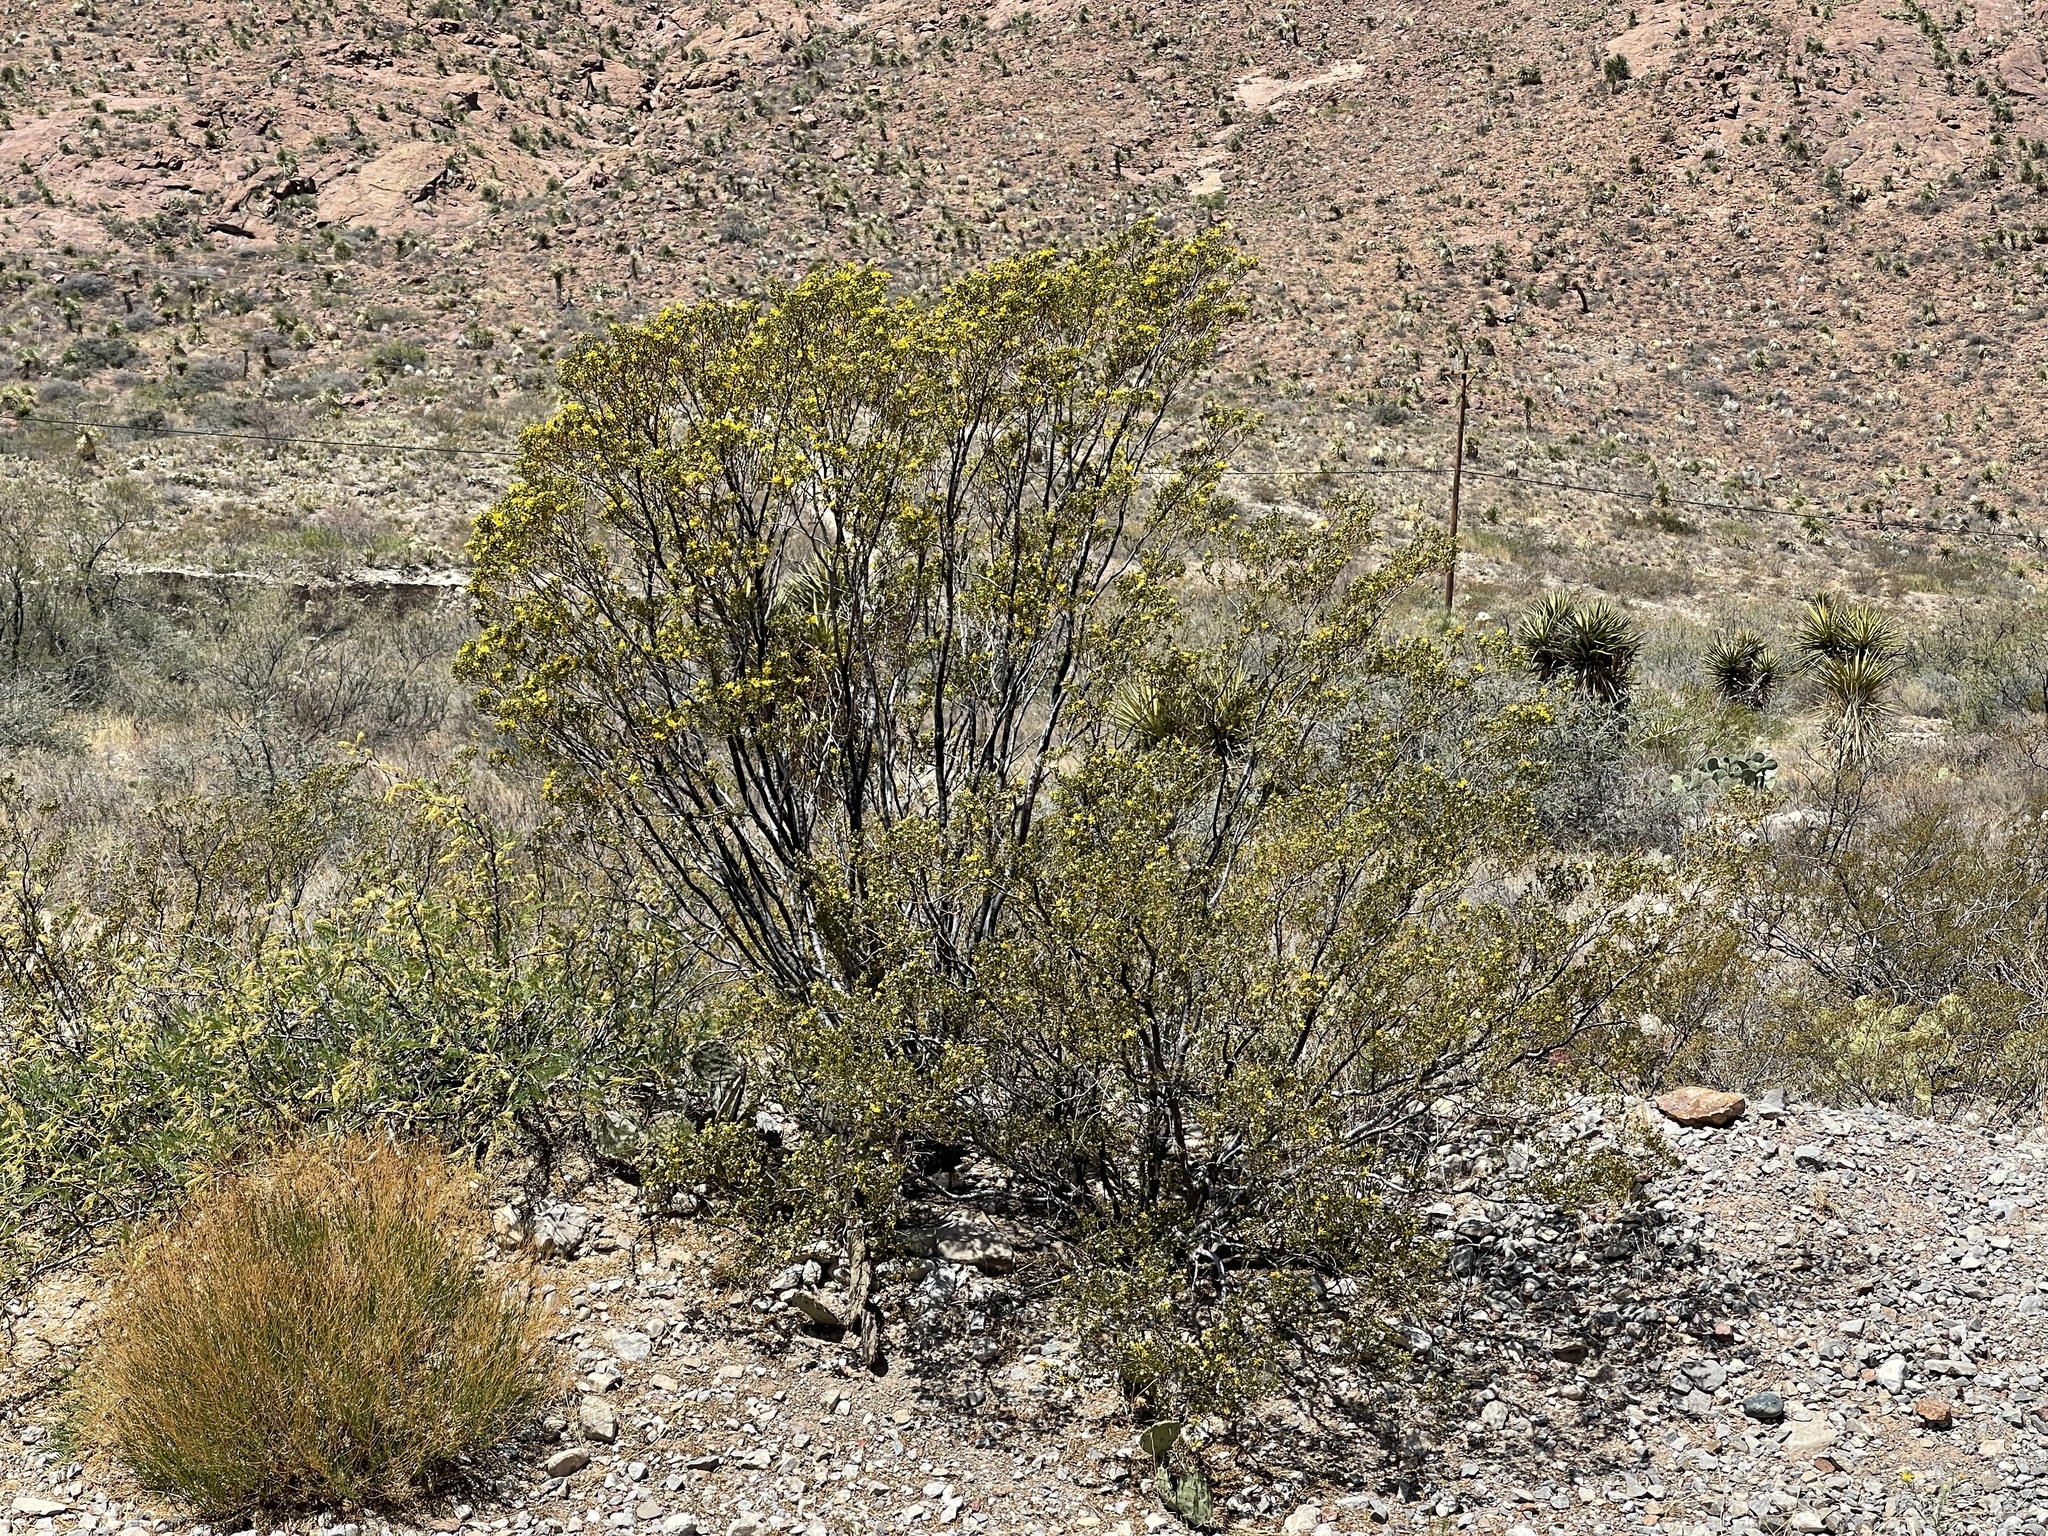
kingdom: Plantae
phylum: Tracheophyta
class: Magnoliopsida
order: Zygophyllales
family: Zygophyllaceae
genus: Larrea
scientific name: Larrea tridentata
